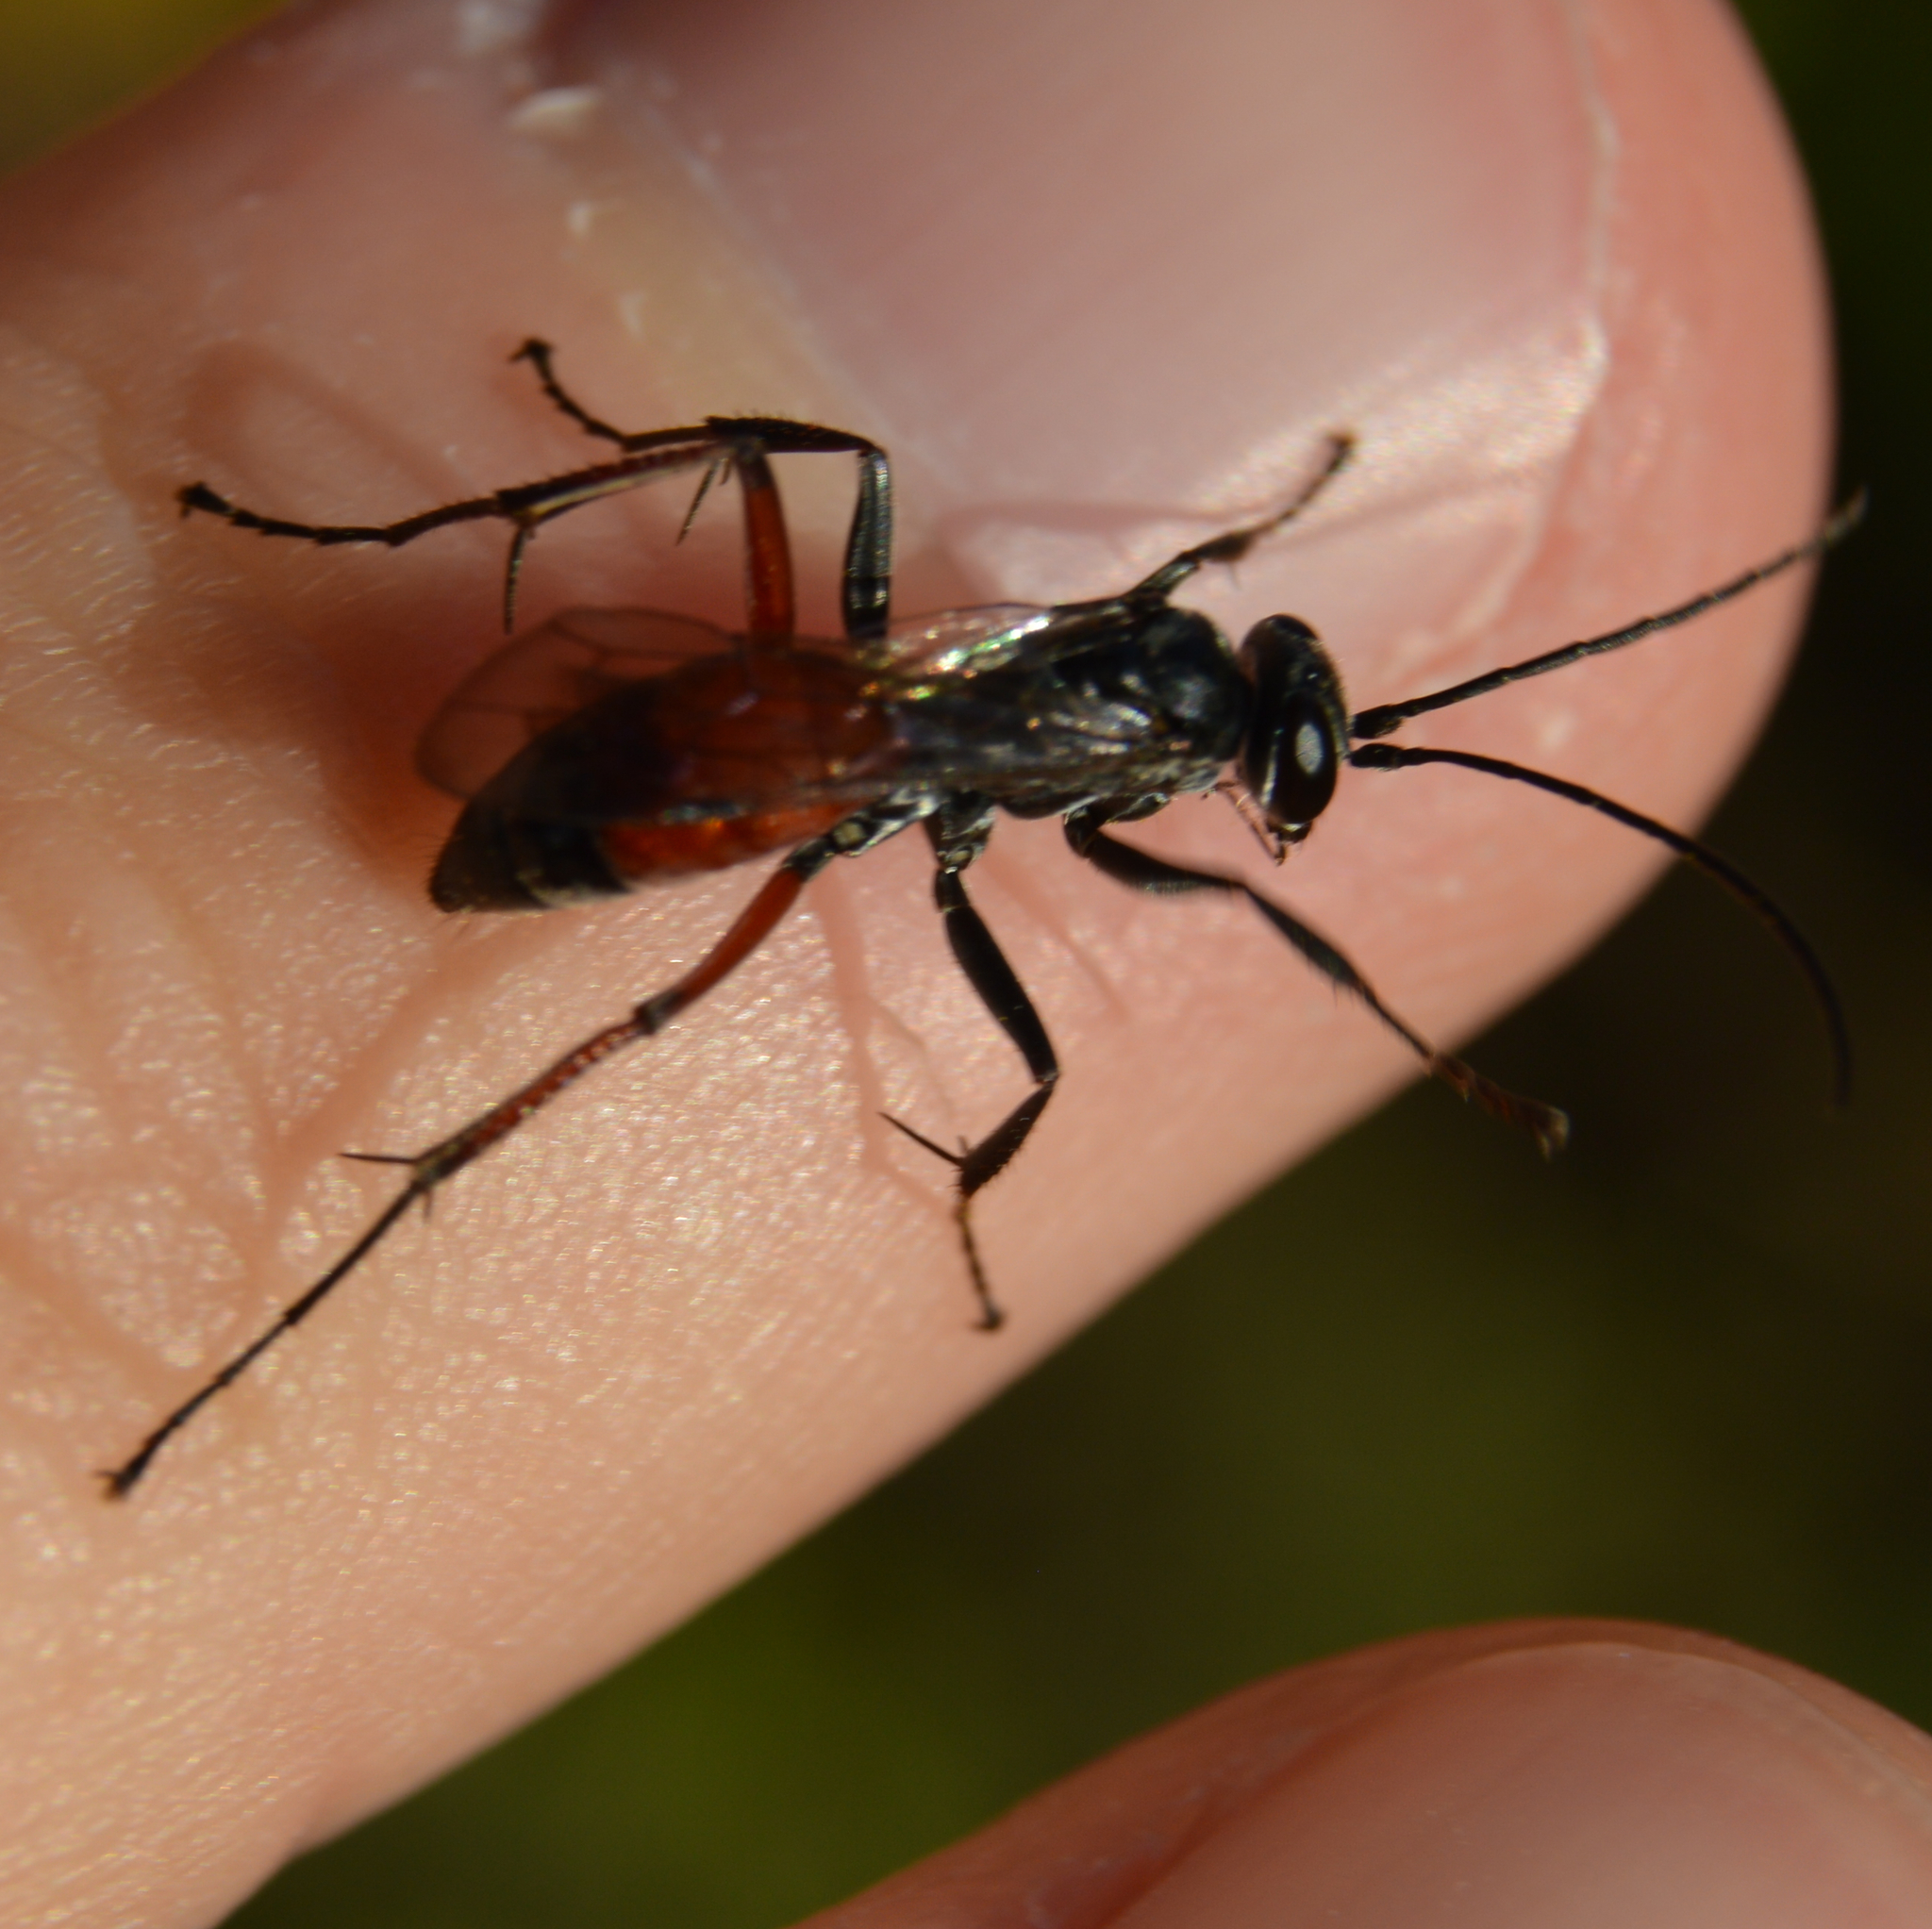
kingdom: Animalia
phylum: Arthropoda
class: Insecta
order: Hymenoptera
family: Pompilidae
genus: Caliadurgus
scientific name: Caliadurgus fasciatellus
